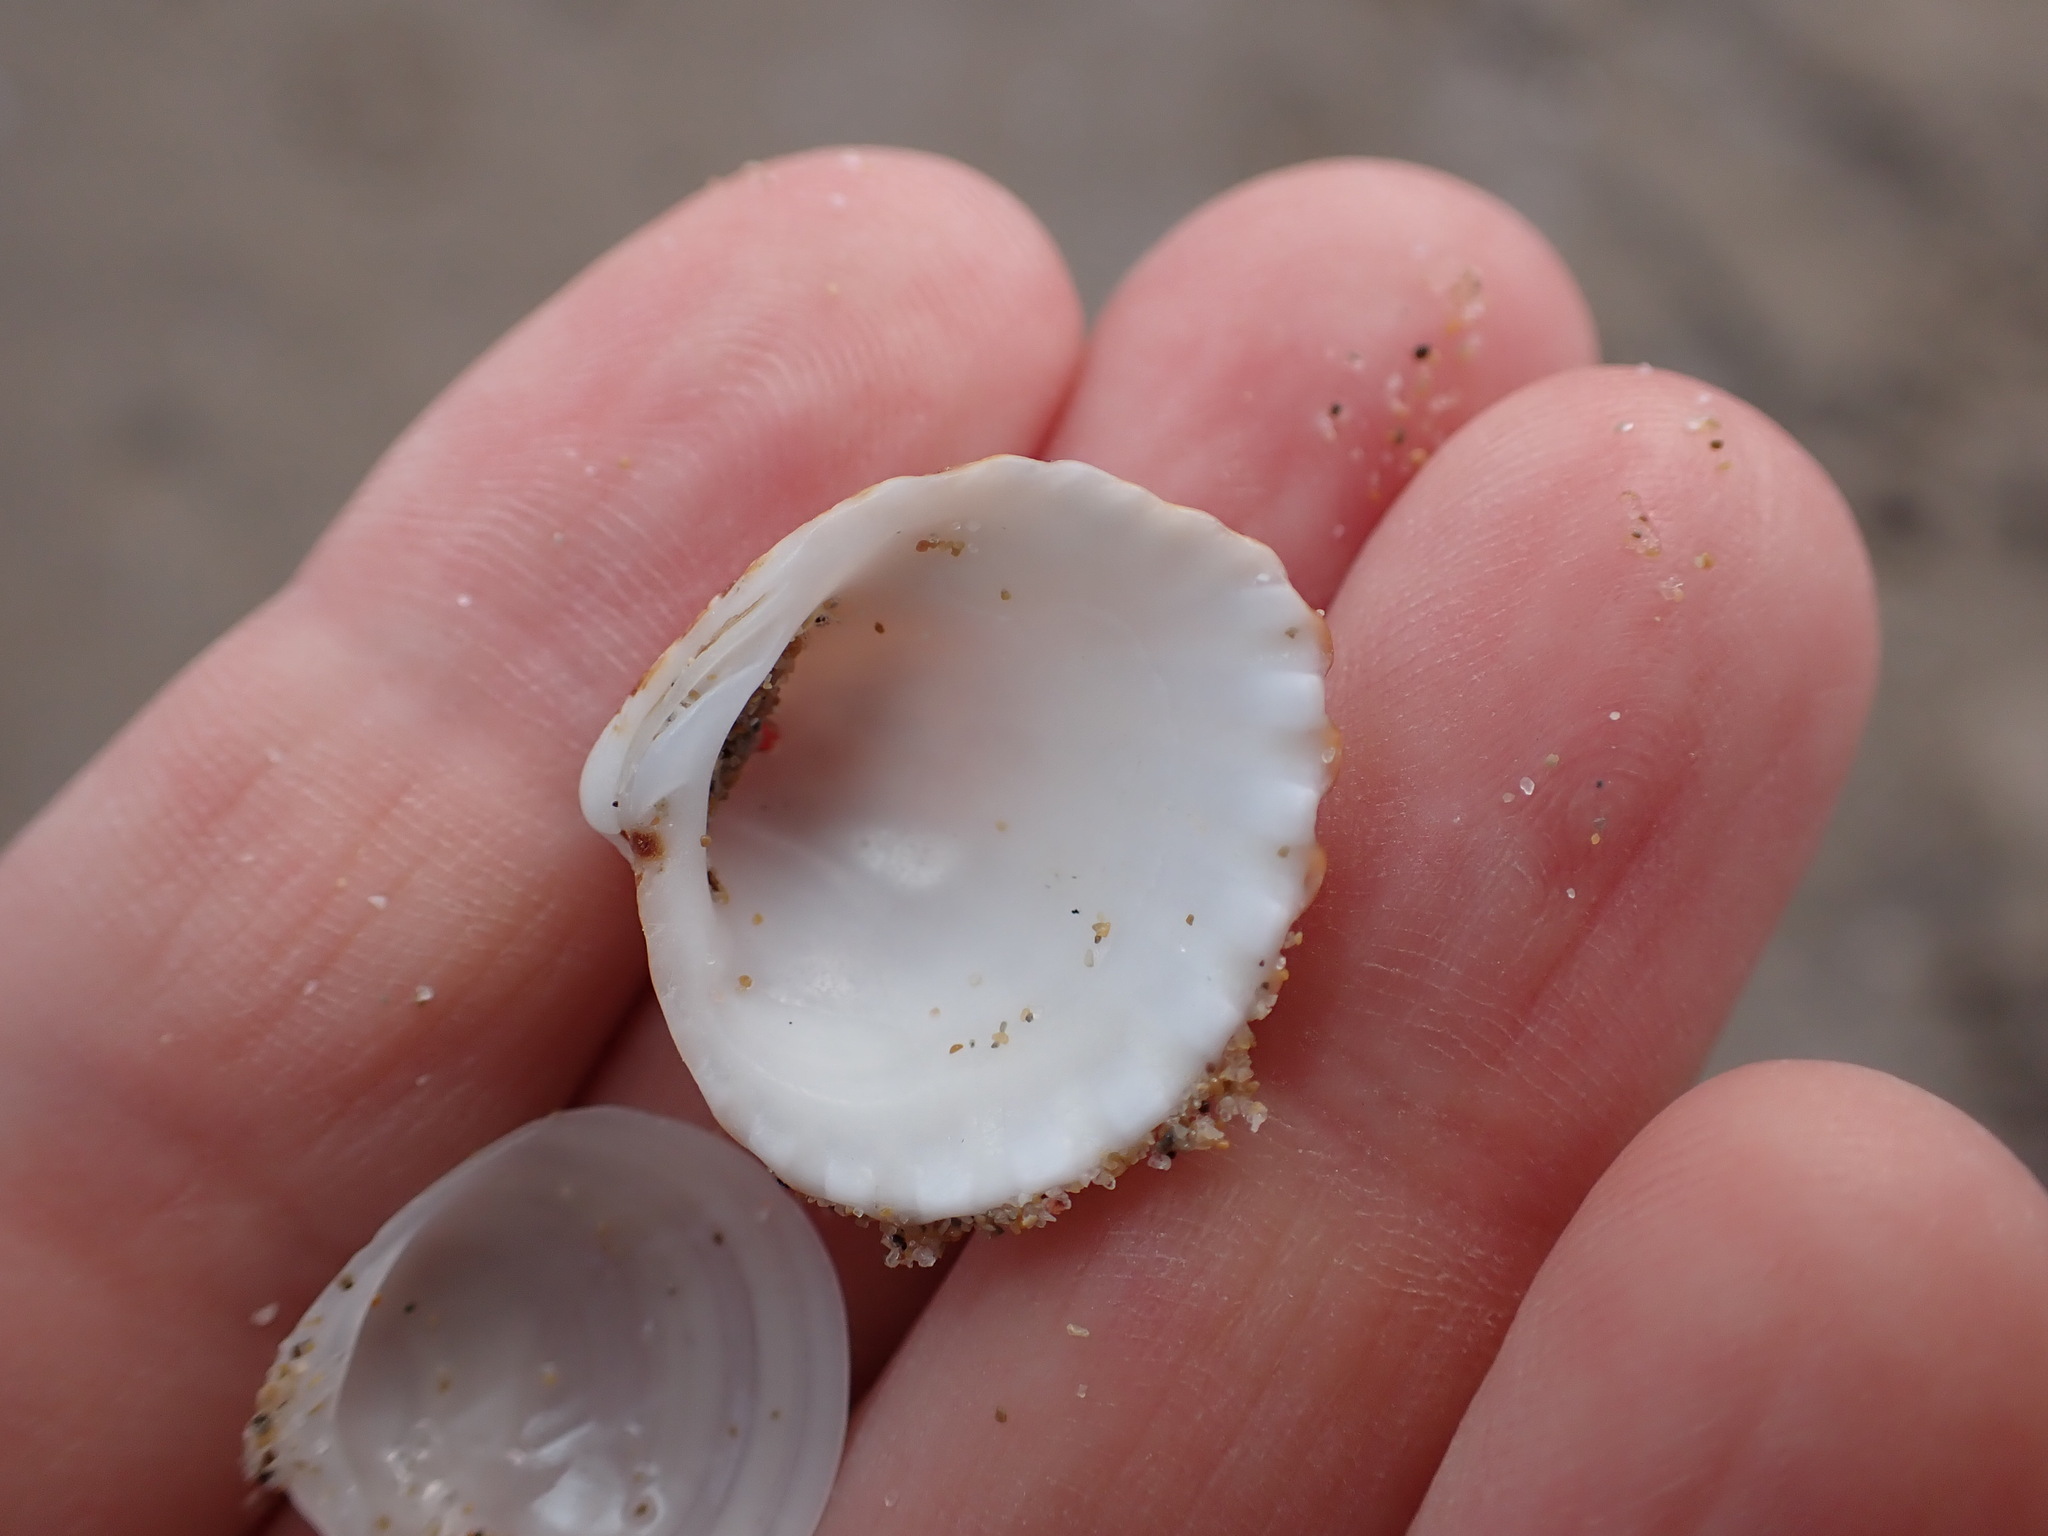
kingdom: Animalia
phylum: Mollusca
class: Bivalvia
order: Carditida
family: Carditidae
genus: Cardites
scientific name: Cardites antiquatus
